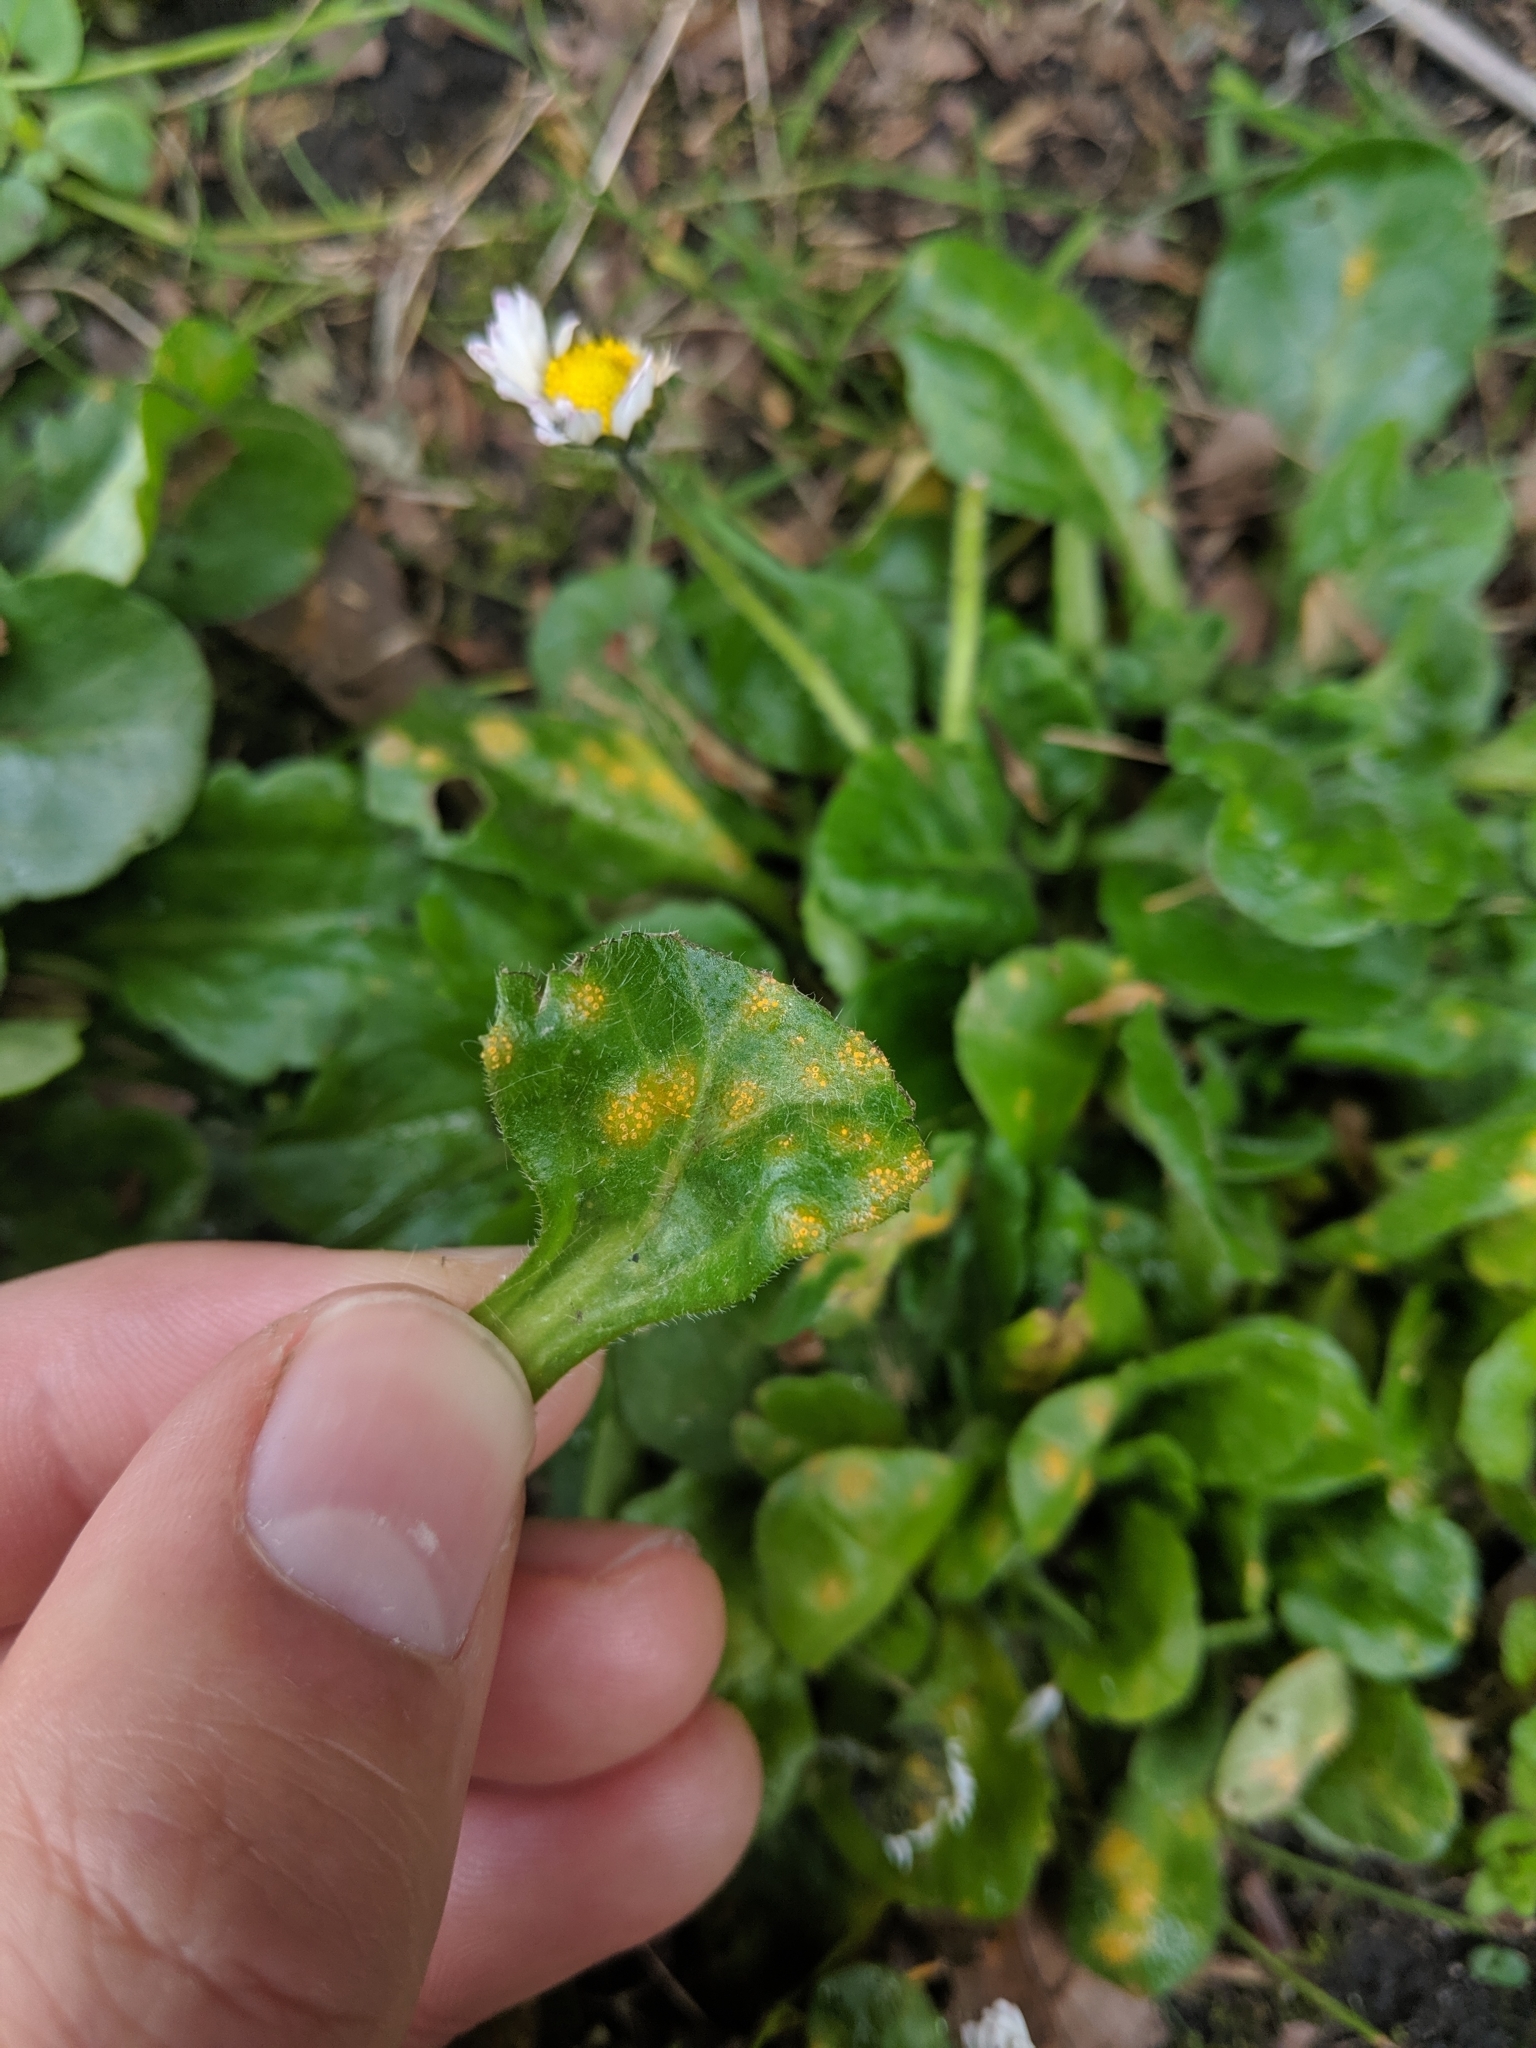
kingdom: Fungi
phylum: Basidiomycota
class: Pucciniomycetes
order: Pucciniales
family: Pucciniaceae
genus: Puccinia
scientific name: Puccinia lagenophorae
